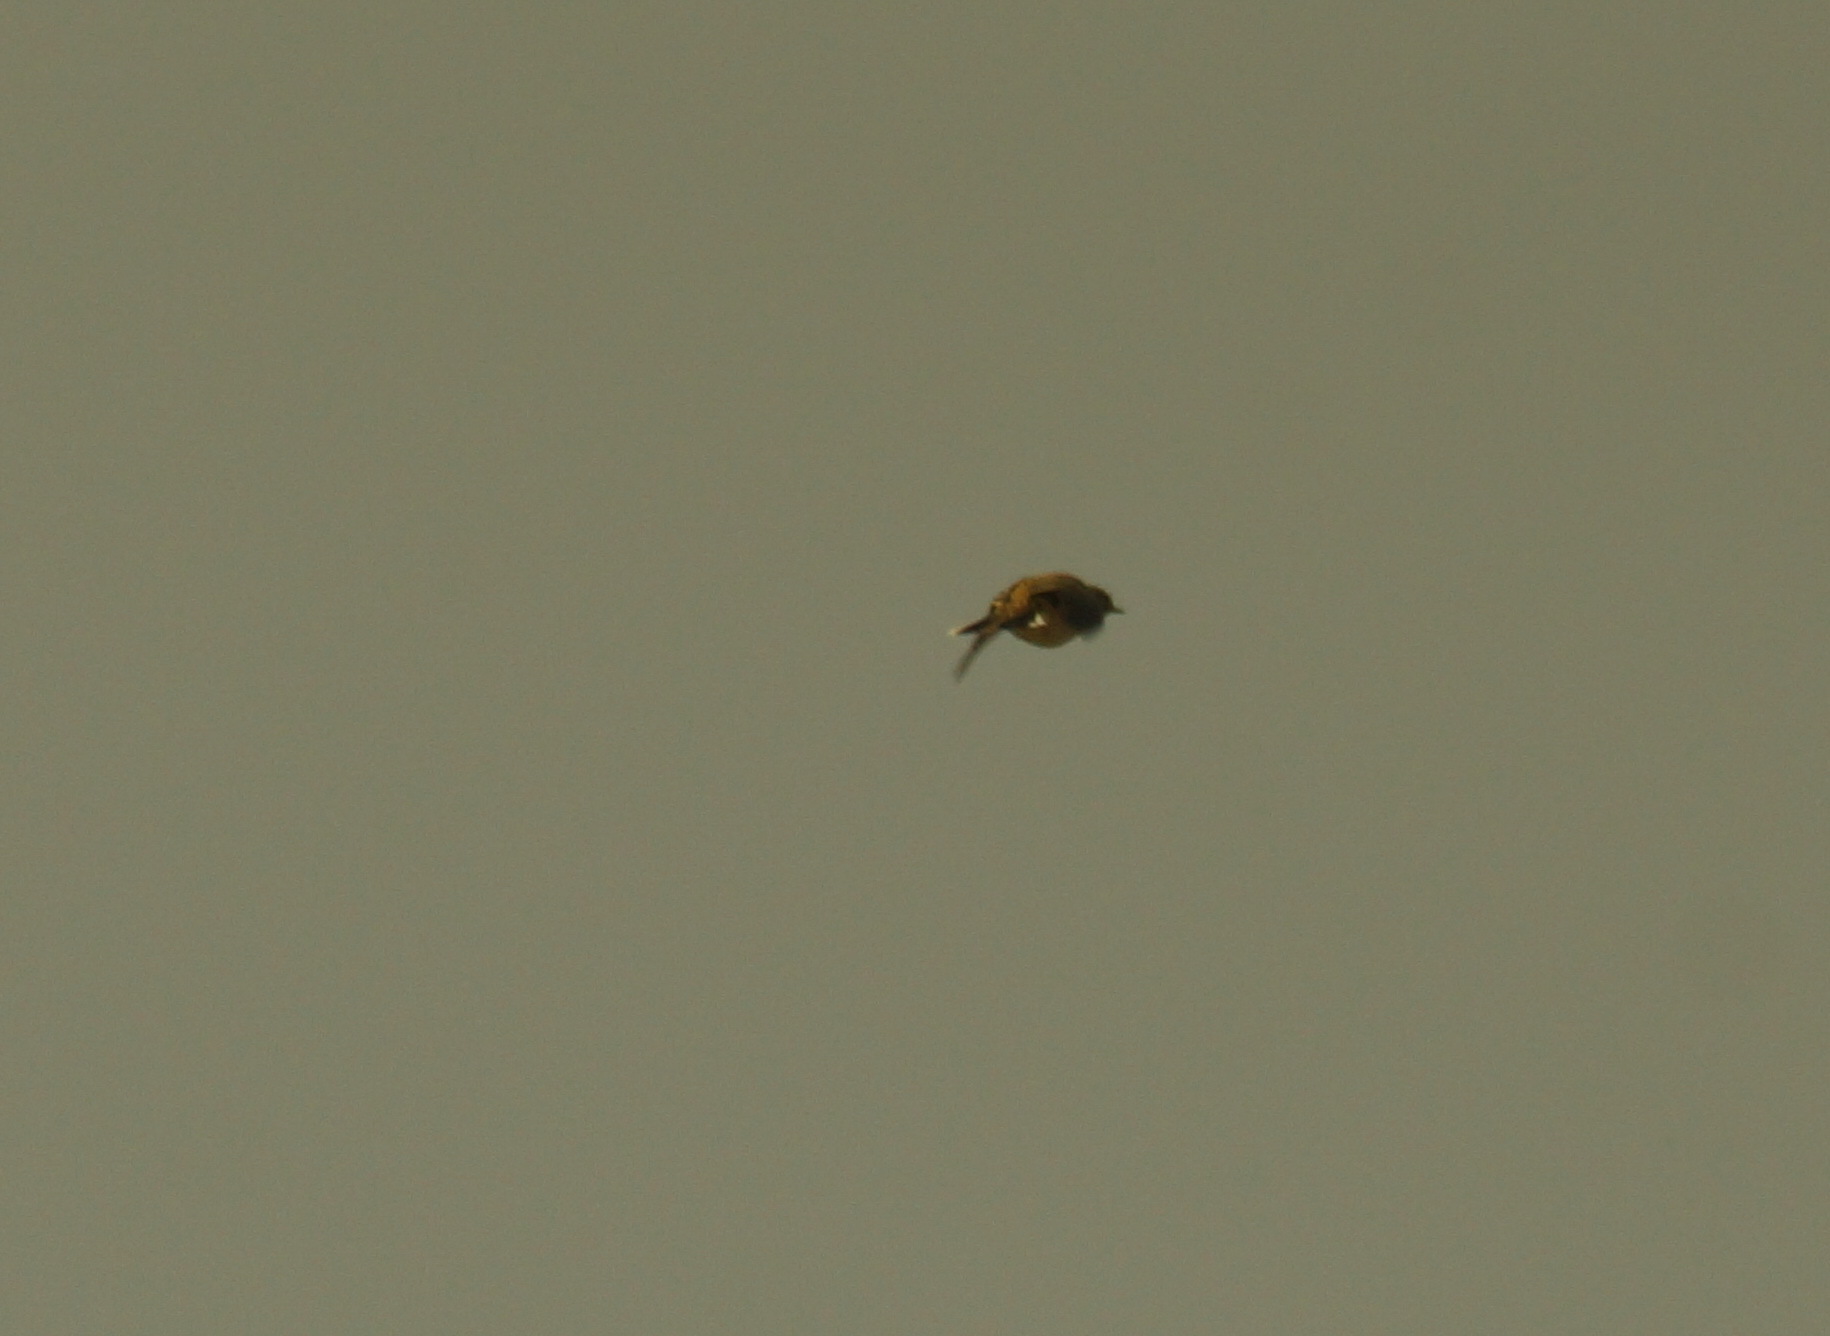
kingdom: Animalia
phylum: Chordata
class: Aves
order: Passeriformes
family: Motacillidae
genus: Anthus
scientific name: Anthus pratensis
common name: Meadow pipit
